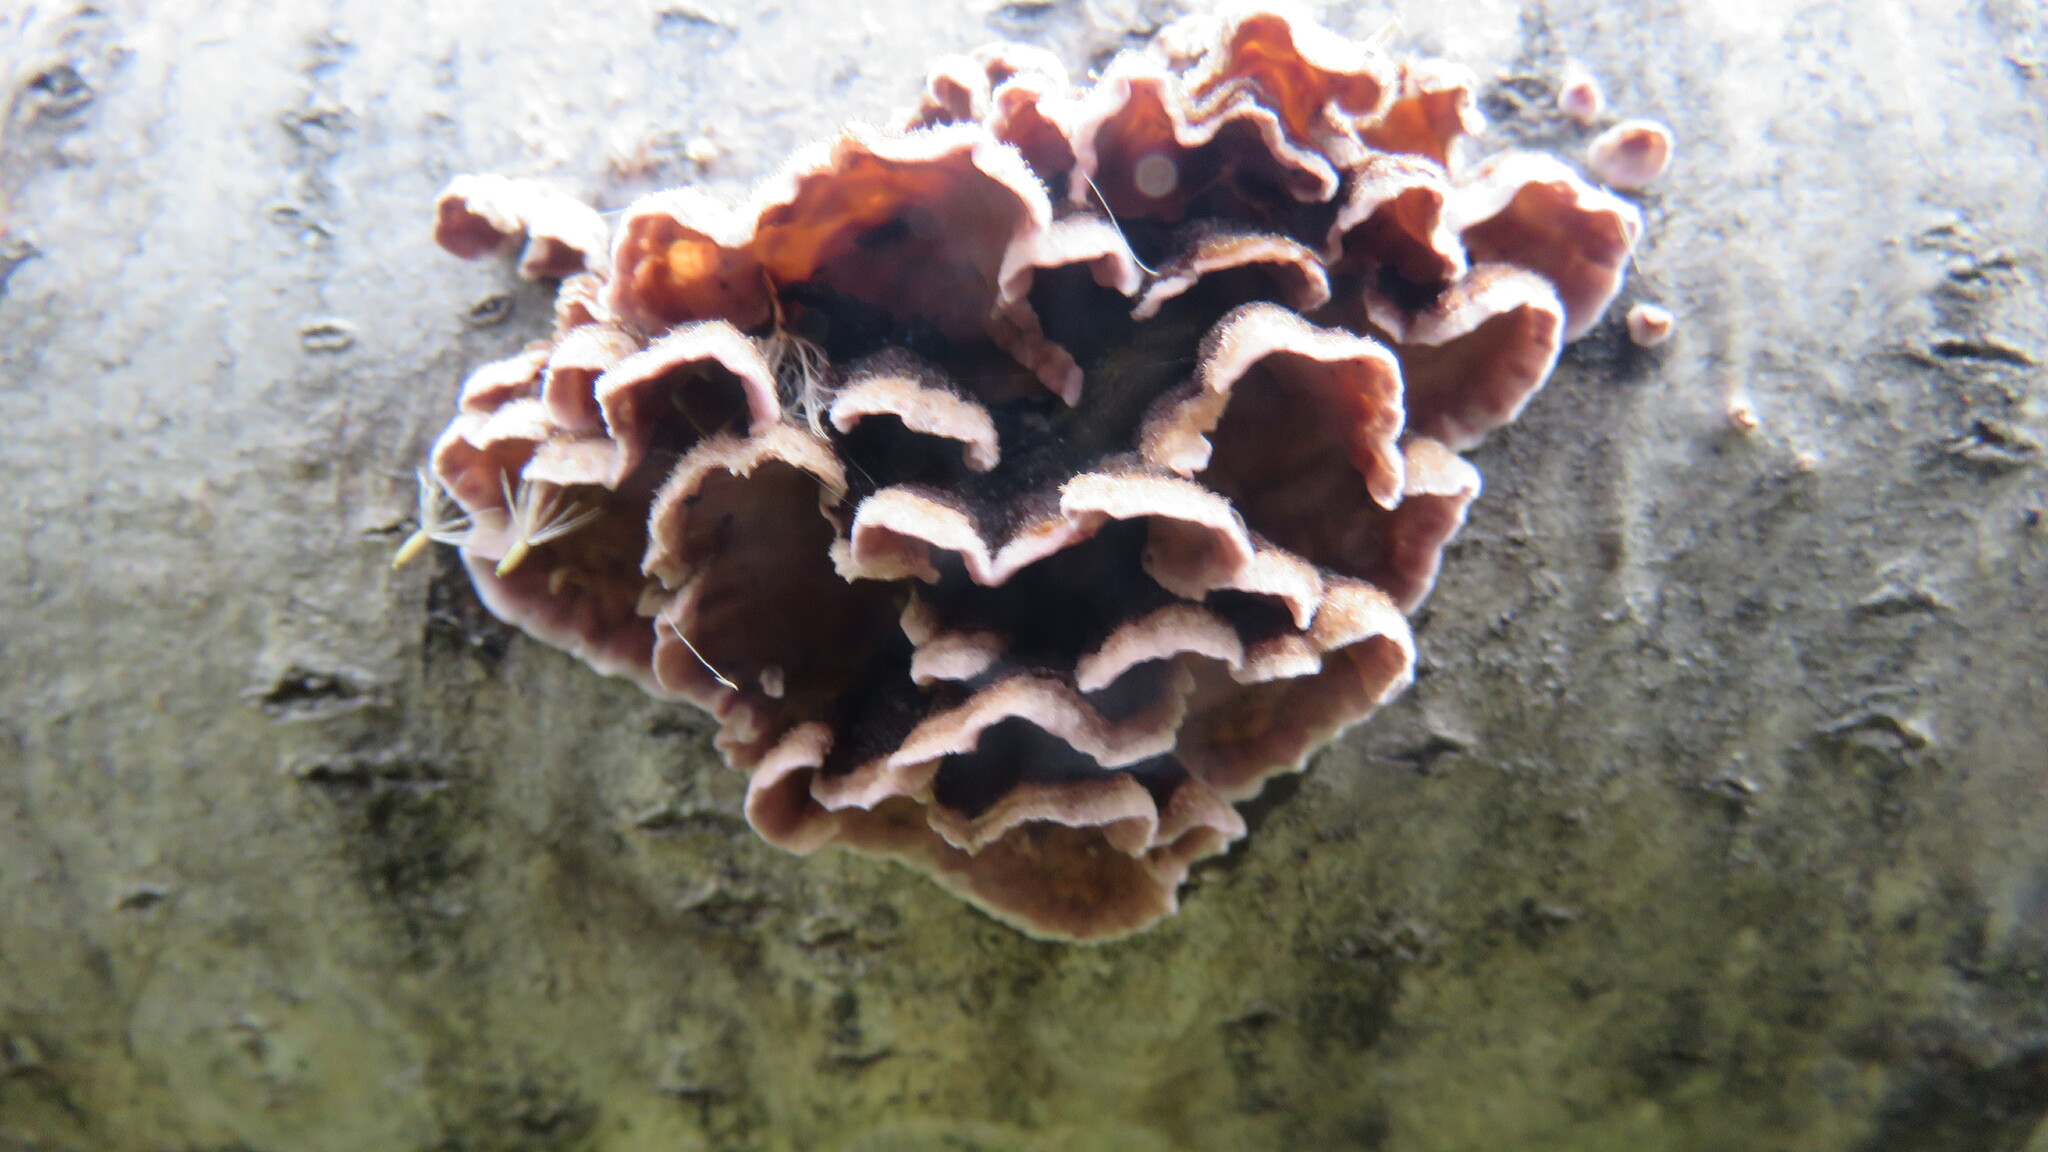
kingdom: Fungi
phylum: Basidiomycota
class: Agaricomycetes
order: Agaricales
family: Cyphellaceae
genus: Chondrostereum
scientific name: Chondrostereum purpureum
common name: Silver leaf disease
